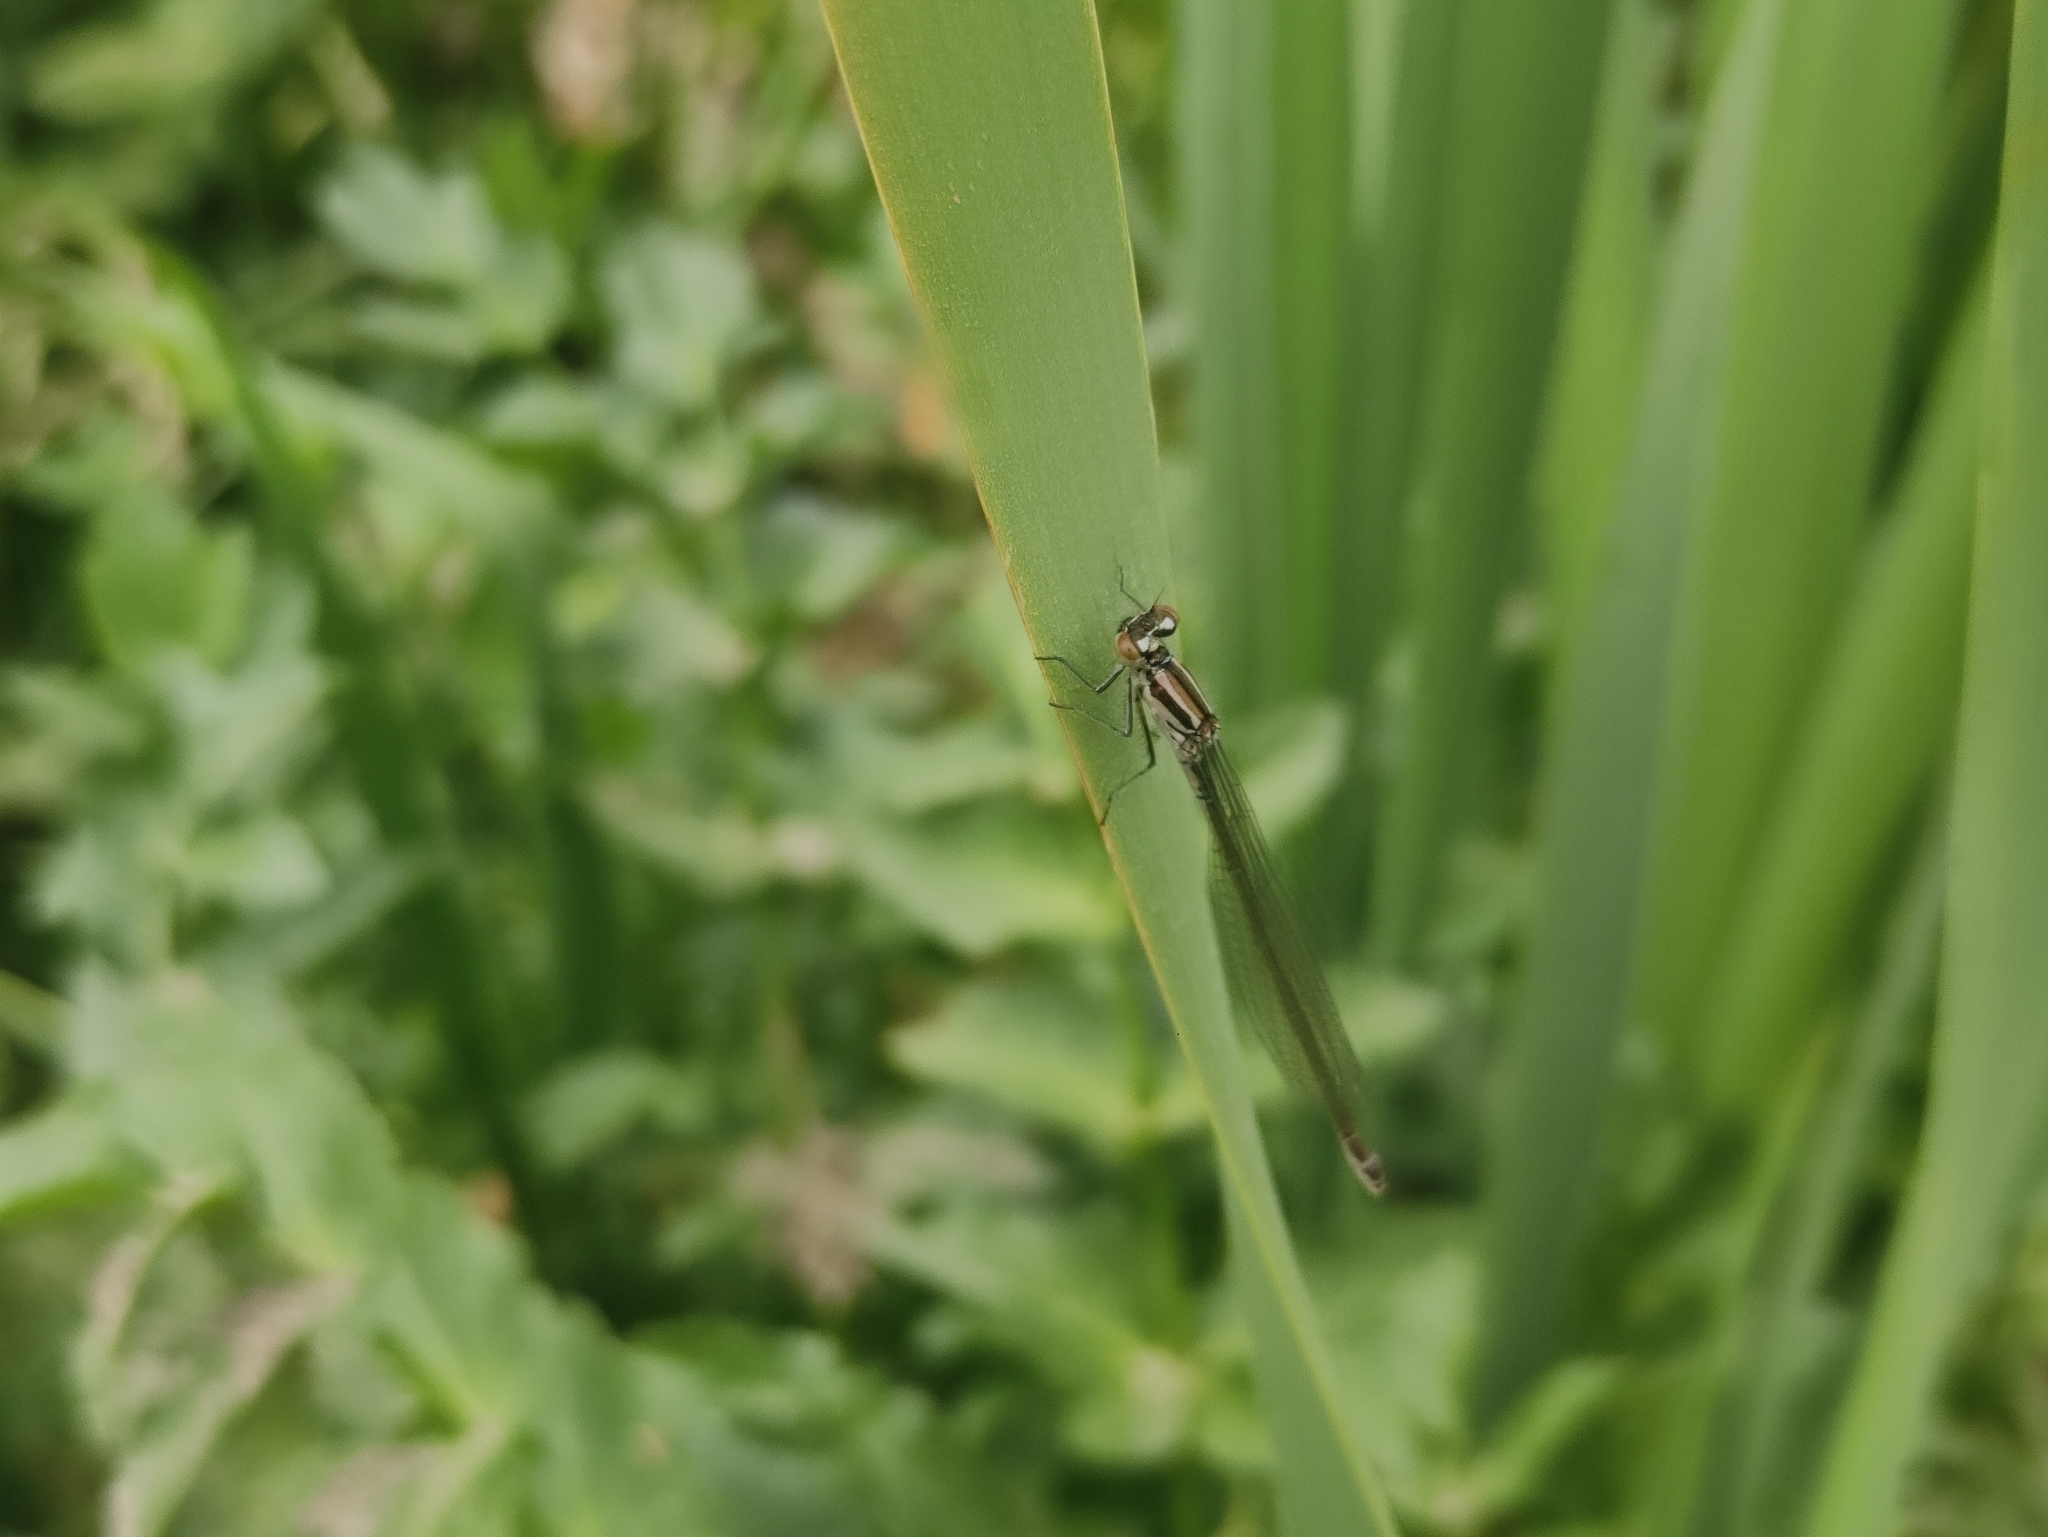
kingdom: Animalia
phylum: Arthropoda
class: Insecta
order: Odonata
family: Coenagrionidae
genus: Coenagrion
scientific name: Coenagrion puella
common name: Azure damselfly
